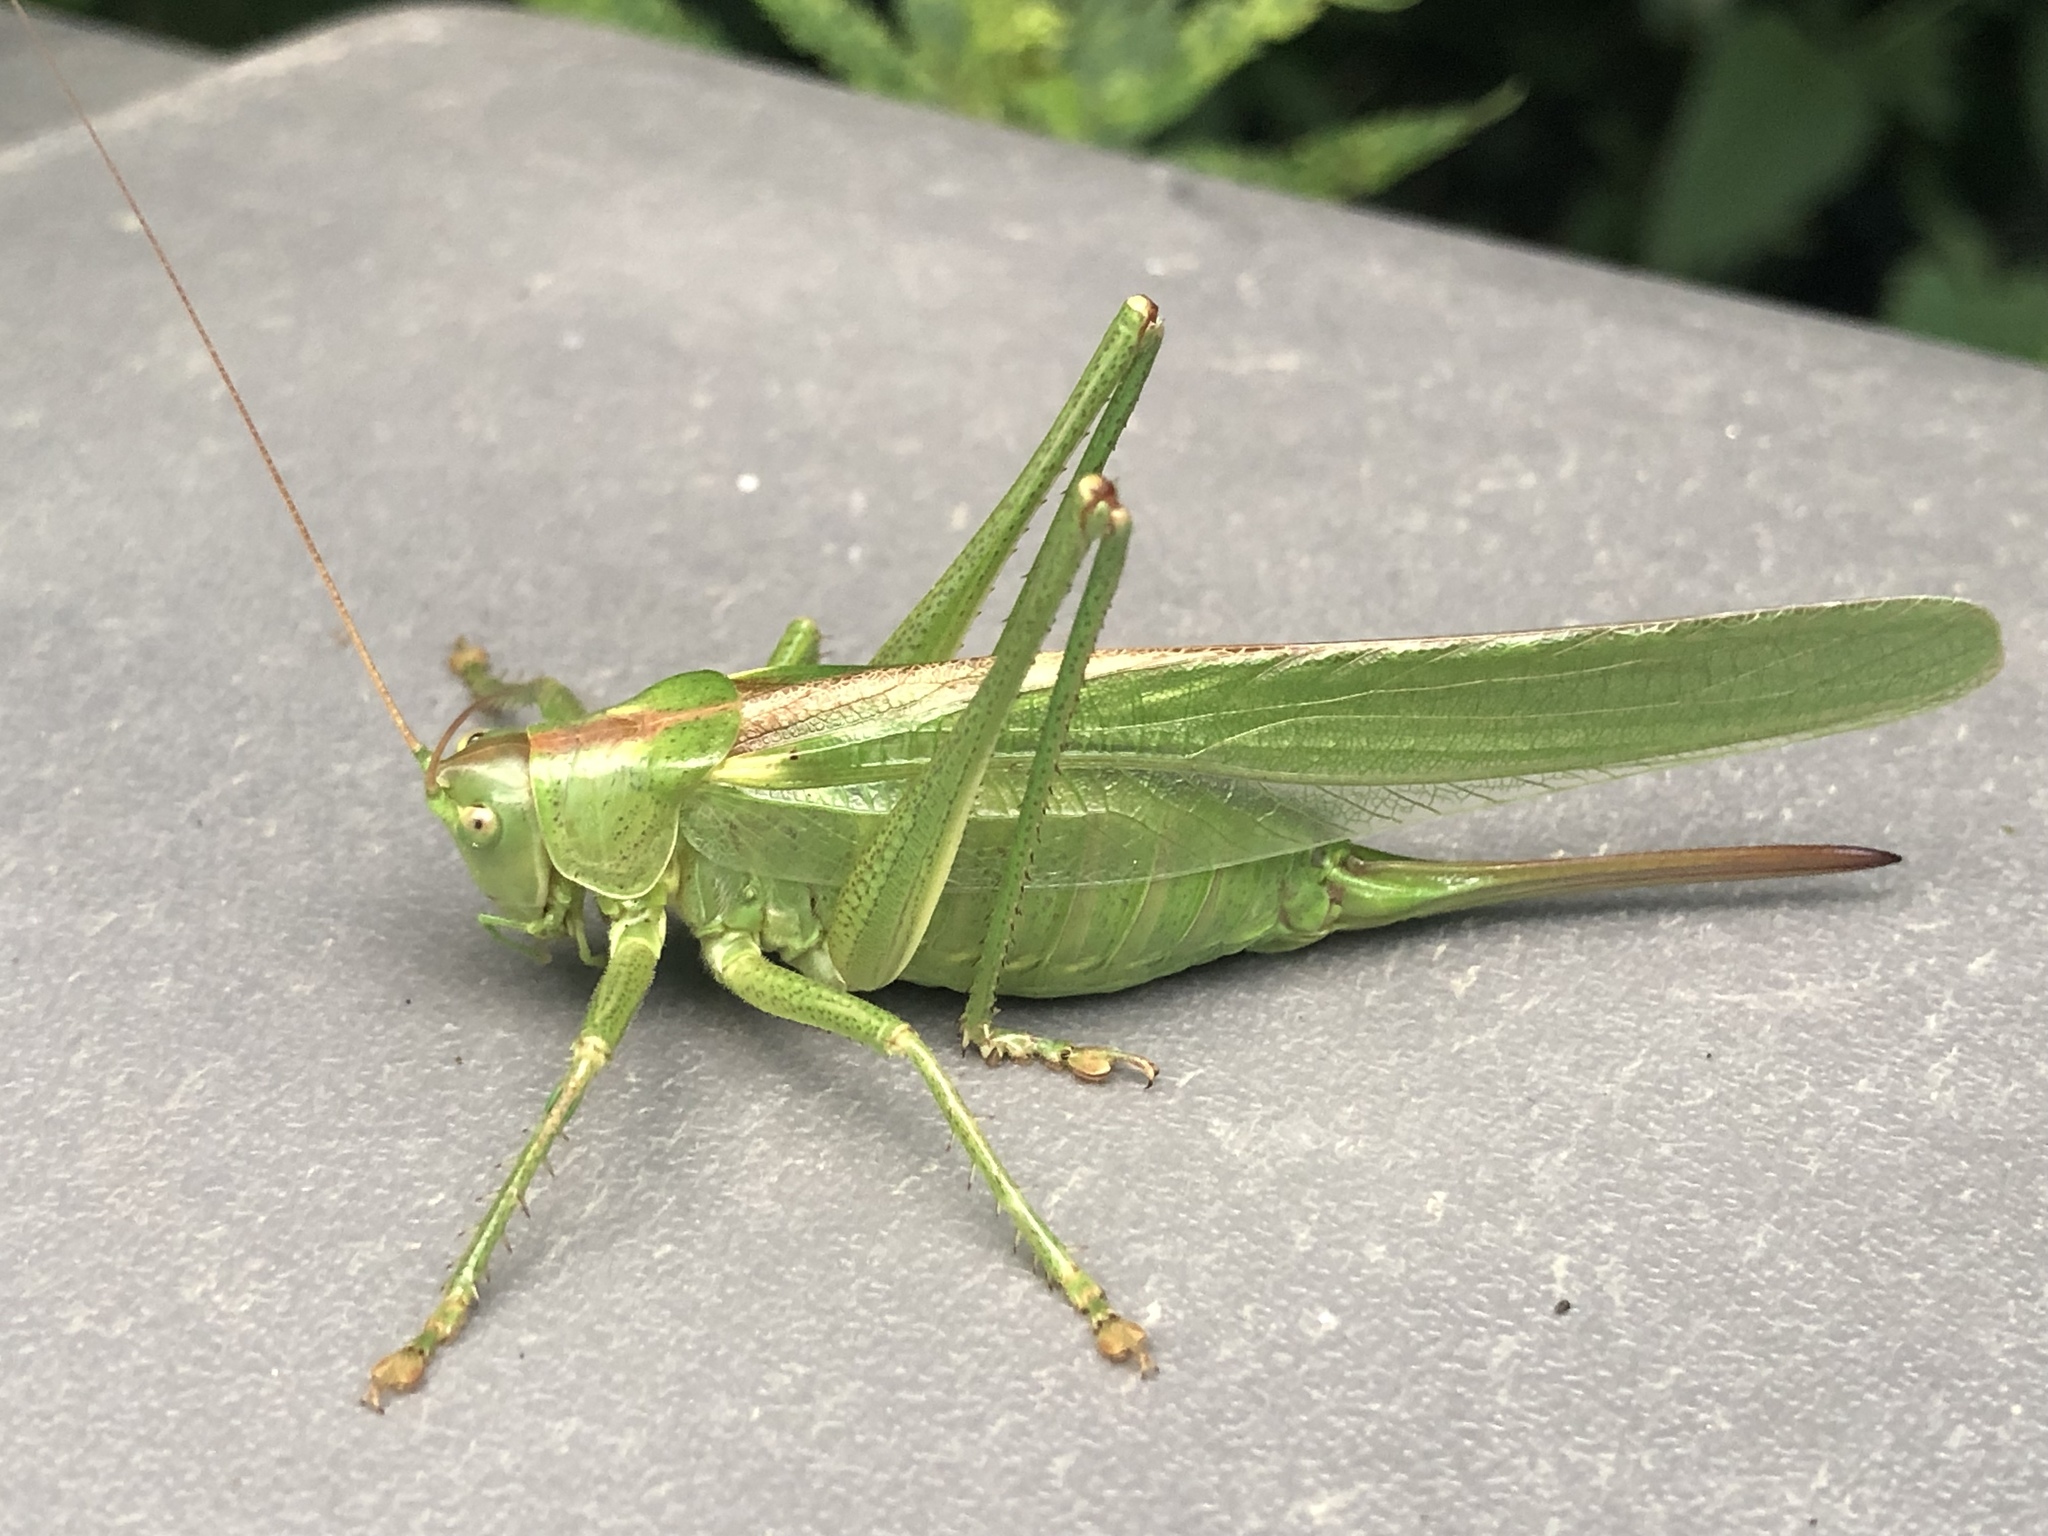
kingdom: Animalia
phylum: Arthropoda
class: Insecta
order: Orthoptera
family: Tettigoniidae
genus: Tettigonia
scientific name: Tettigonia viridissima
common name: Great green bush-cricket
